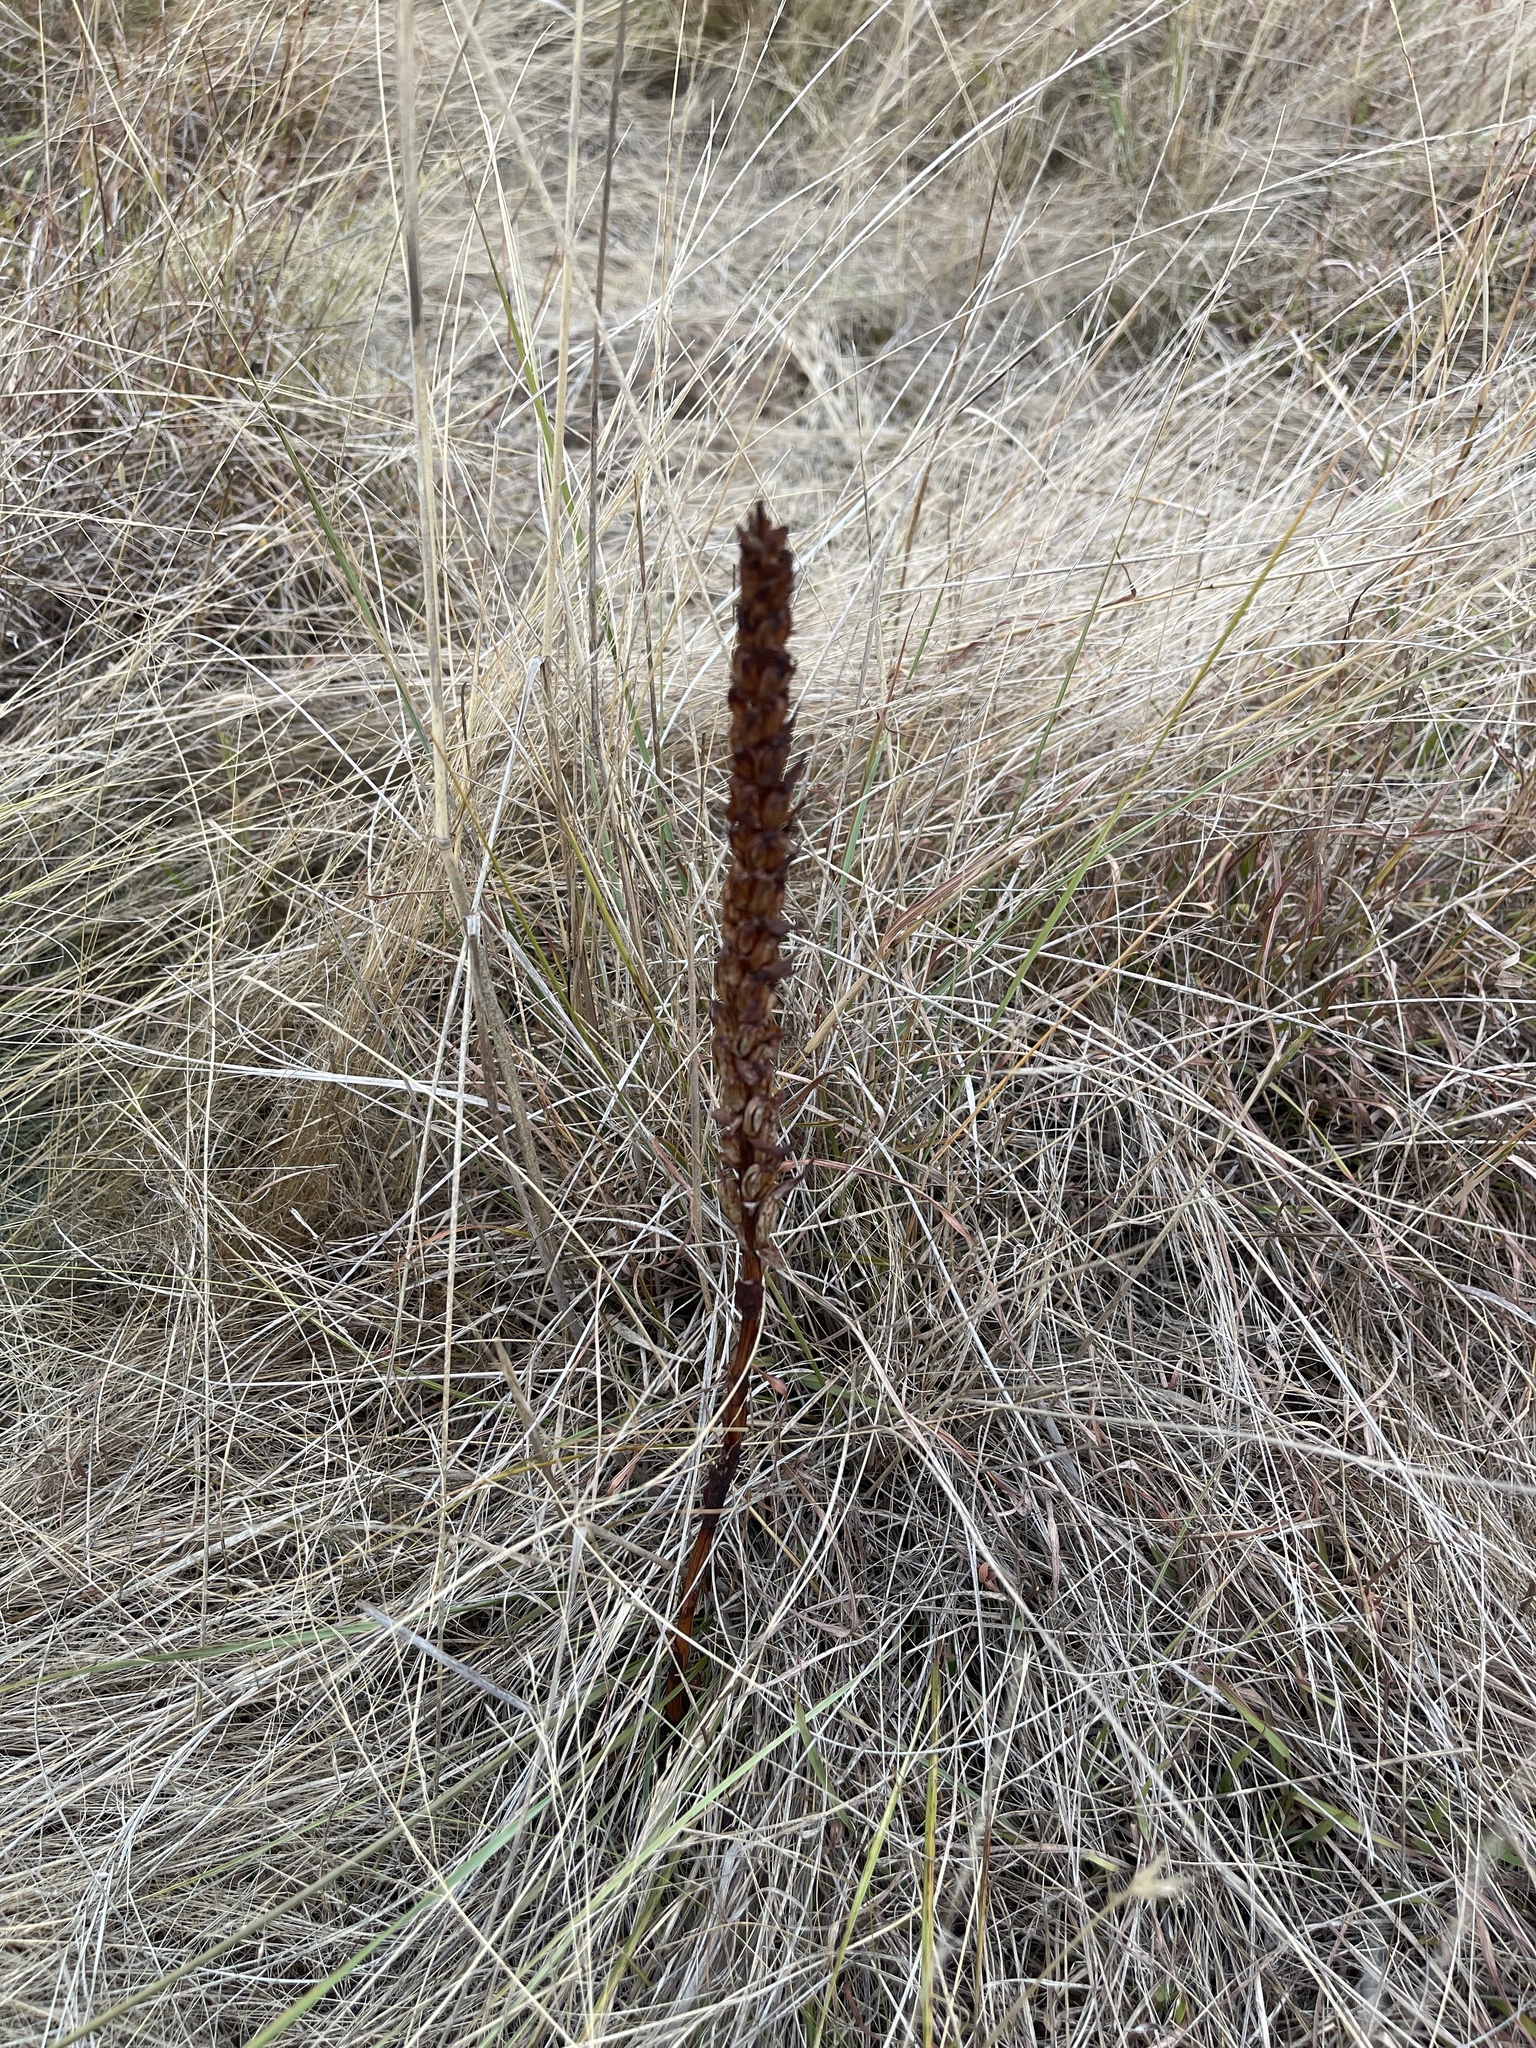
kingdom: Plantae
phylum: Tracheophyta
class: Liliopsida
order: Asparagales
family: Orchidaceae
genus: Disa
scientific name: Disa bracteata
